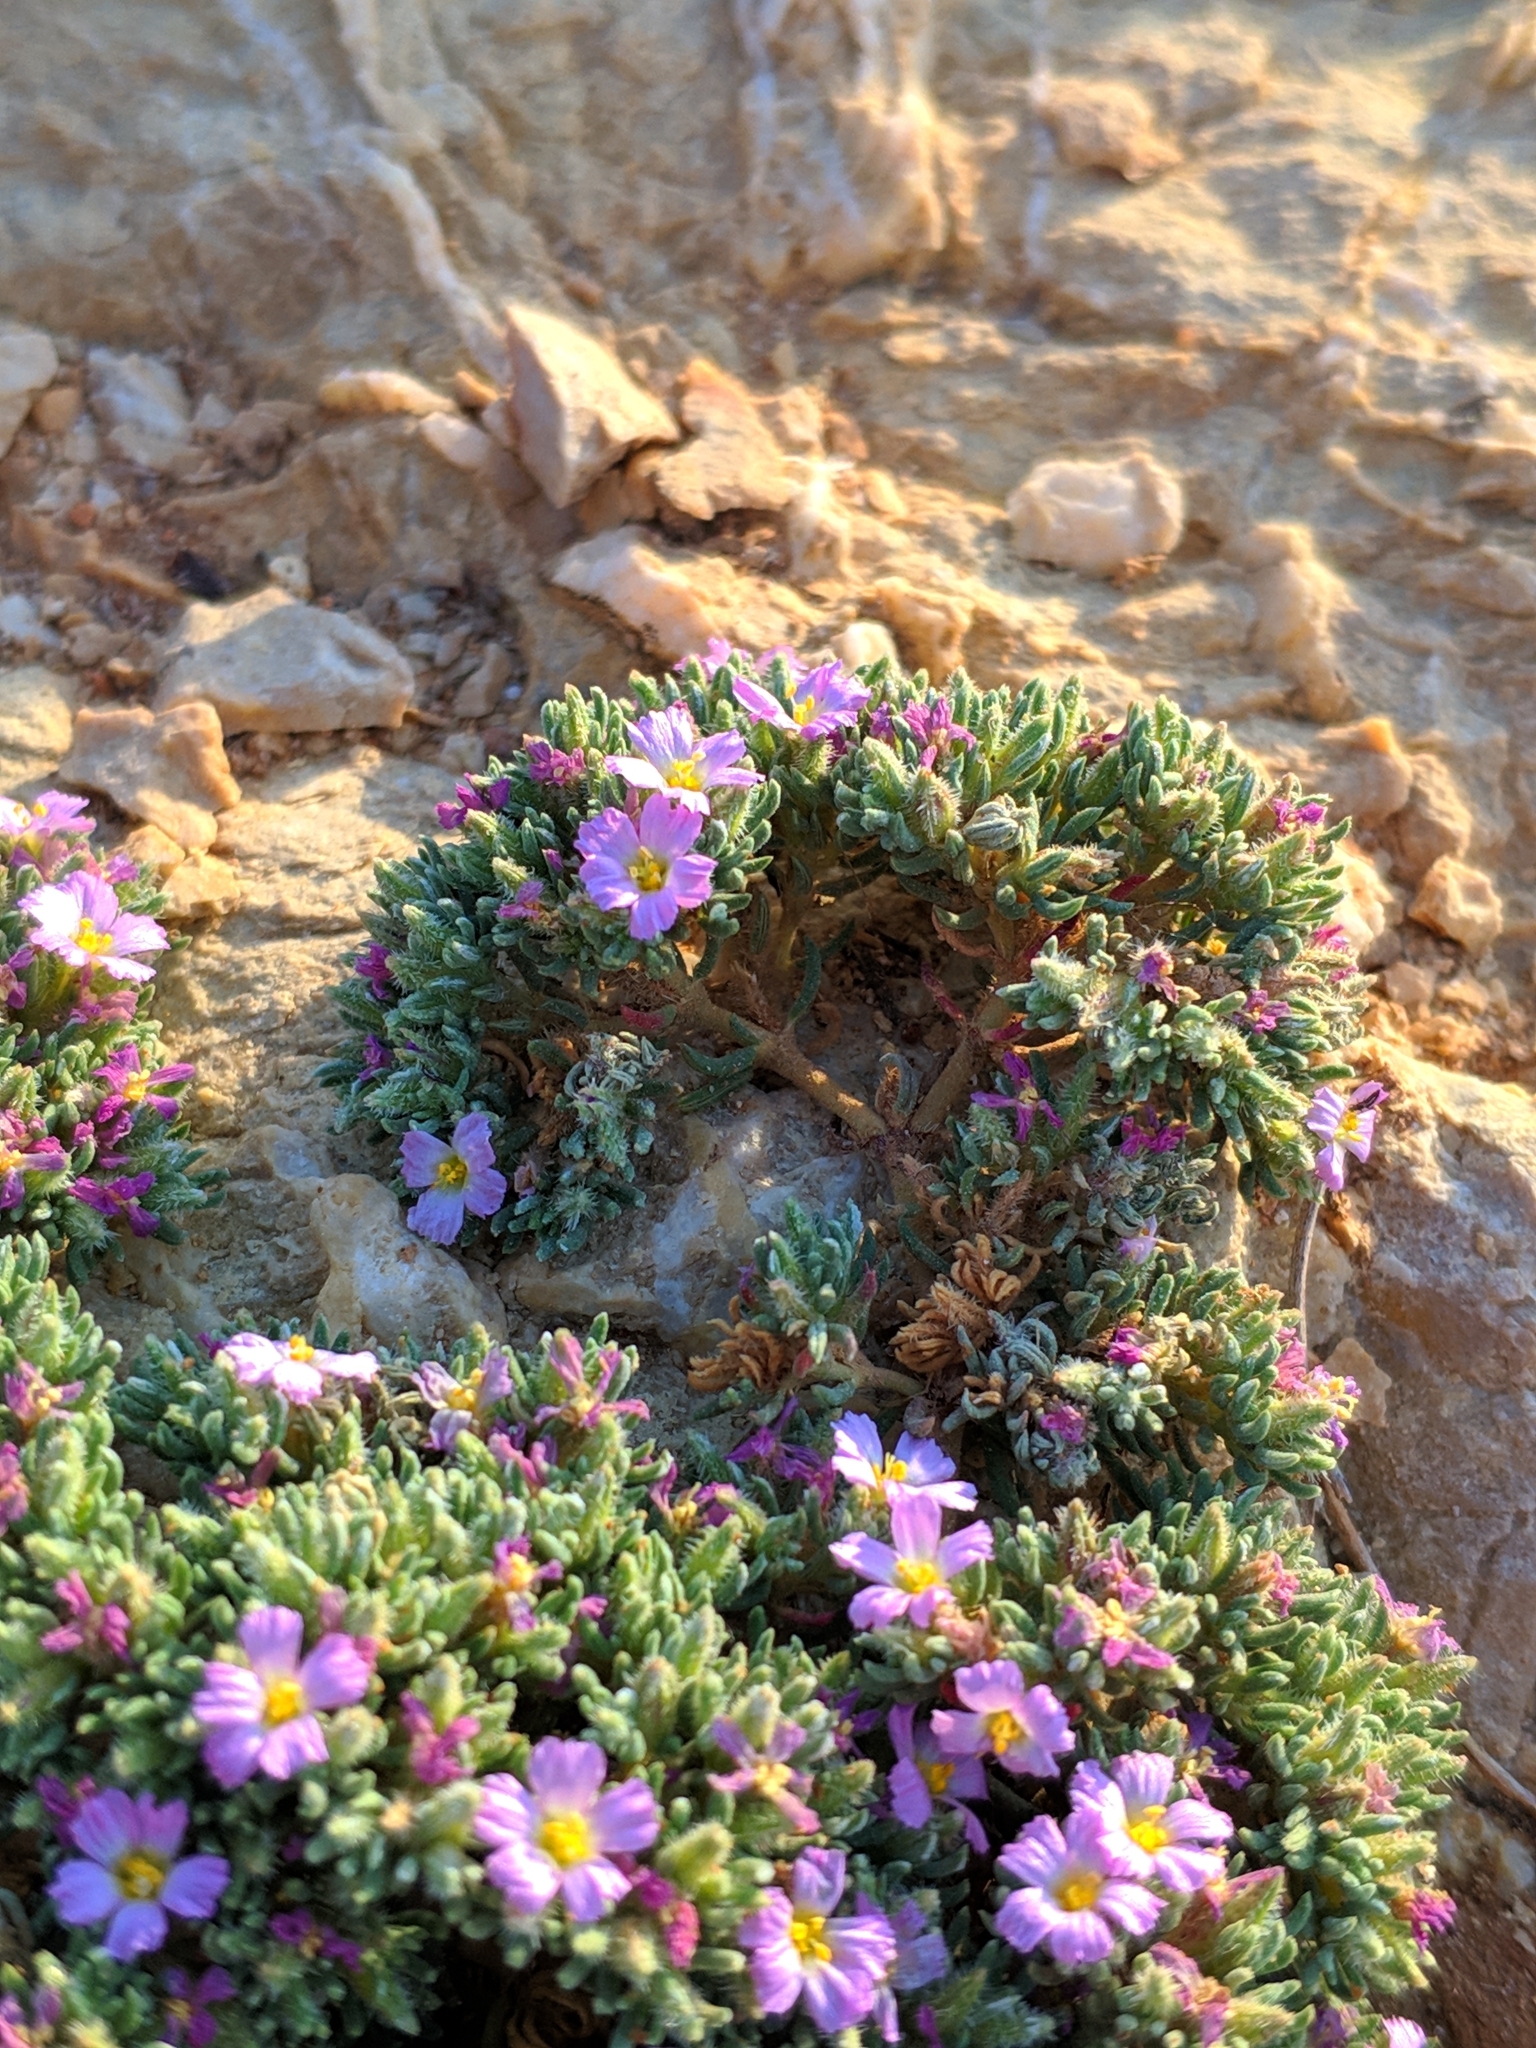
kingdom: Plantae
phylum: Tracheophyta
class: Magnoliopsida
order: Caryophyllales
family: Frankeniaceae
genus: Frankenia
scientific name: Frankenia hirsuta
